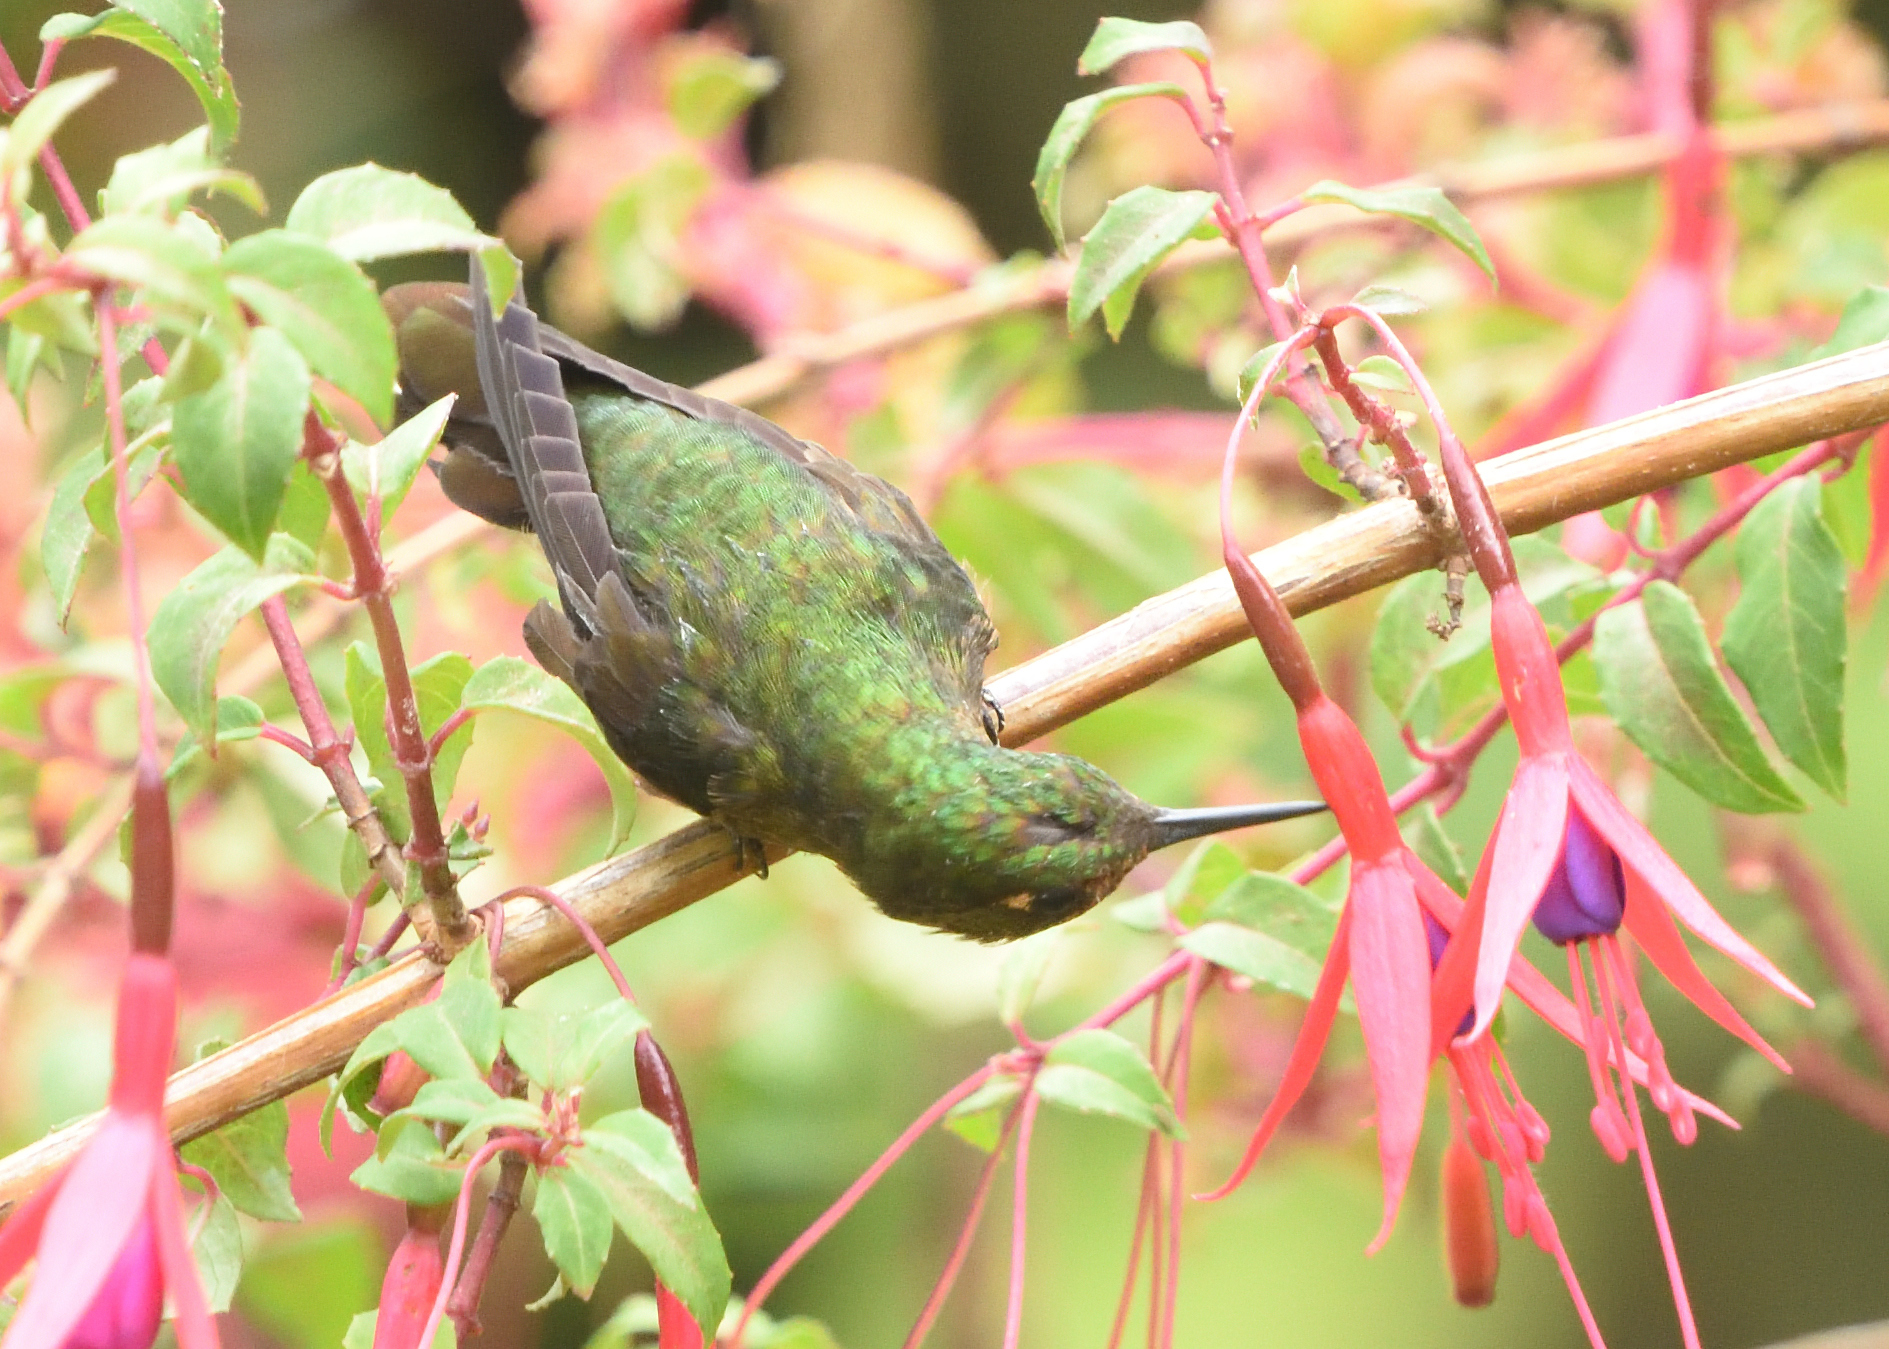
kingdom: Animalia
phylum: Chordata
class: Aves
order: Apodiformes
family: Trochilidae
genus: Metallura
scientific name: Metallura tyrianthina
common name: Tyrian metaltail
